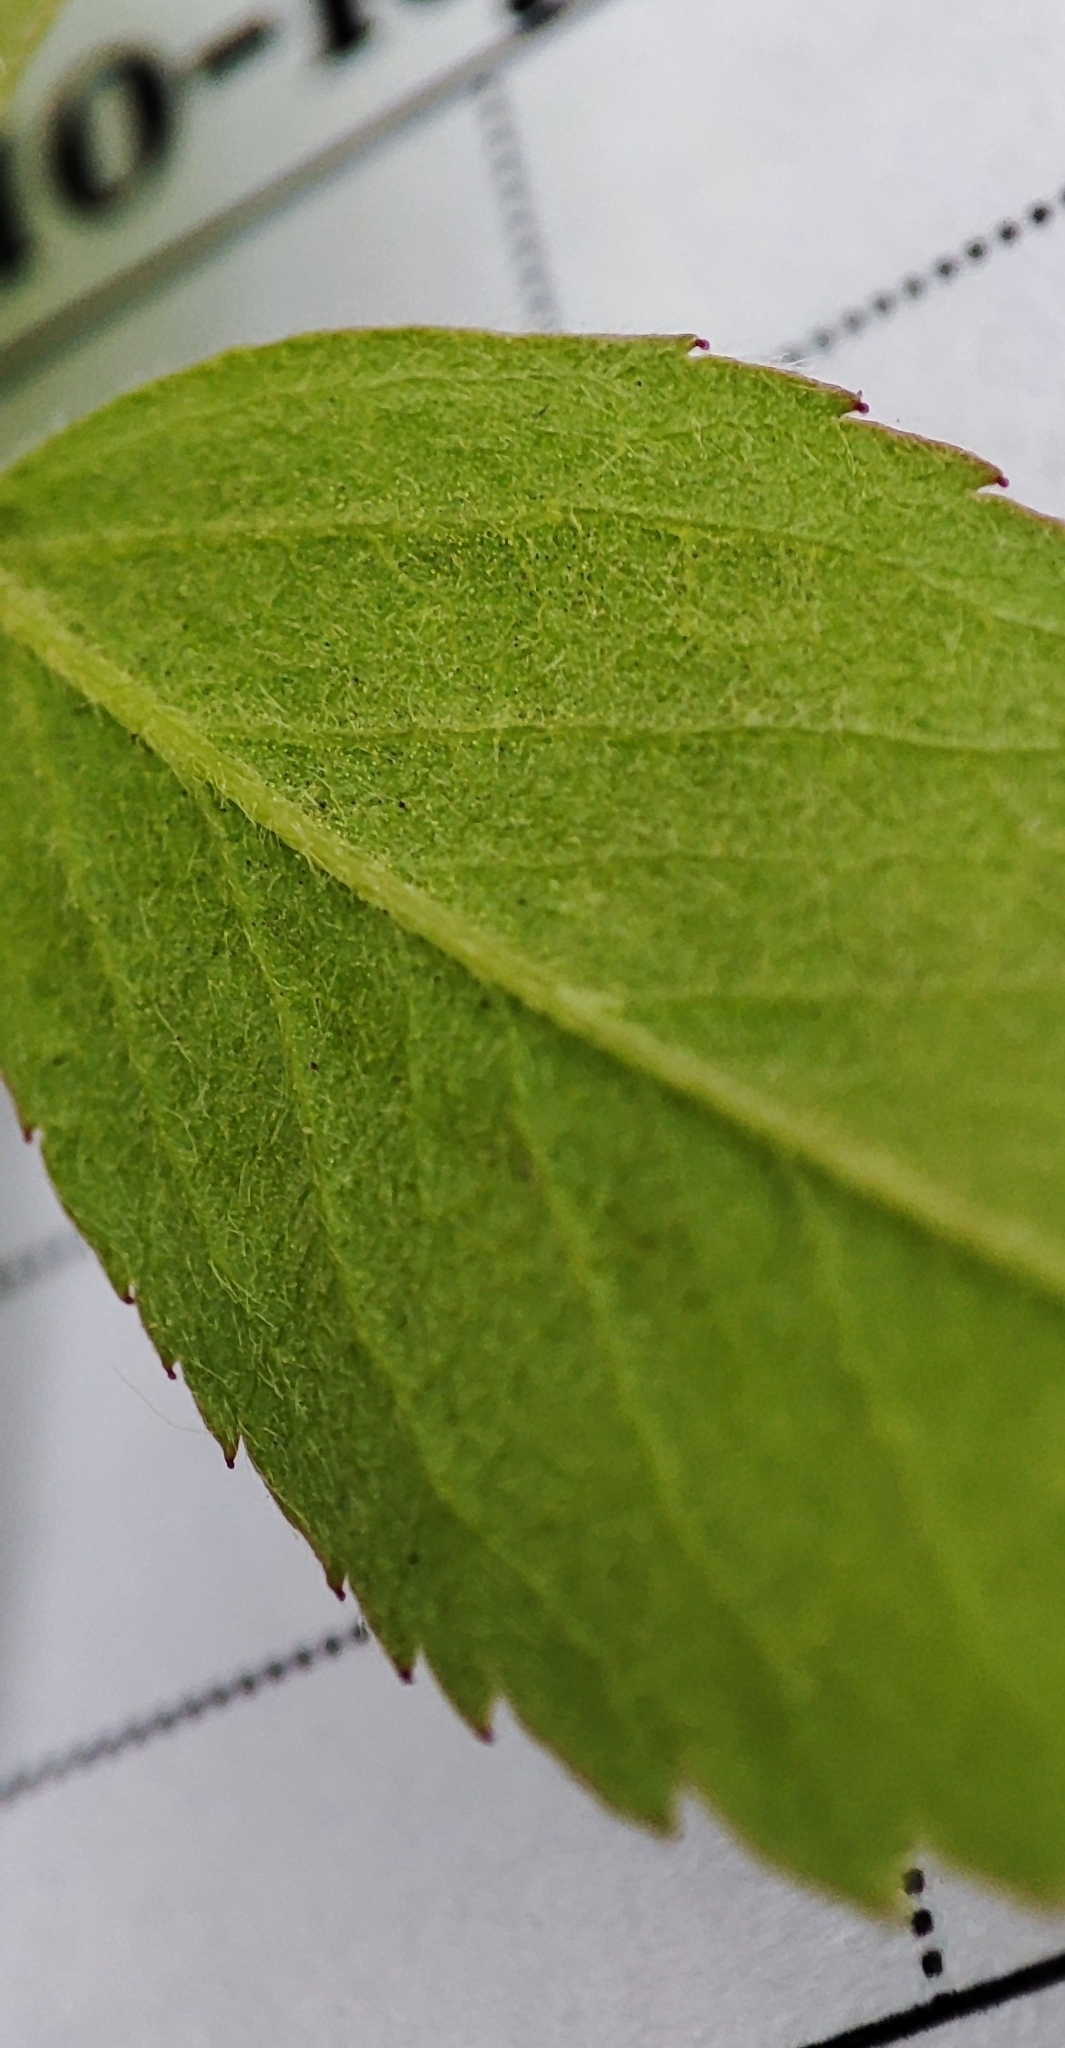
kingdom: Plantae
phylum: Tracheophyta
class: Magnoliopsida
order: Rosales
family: Rosaceae
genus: Rosa
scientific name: Rosa majalis
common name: Cinnamon rose
